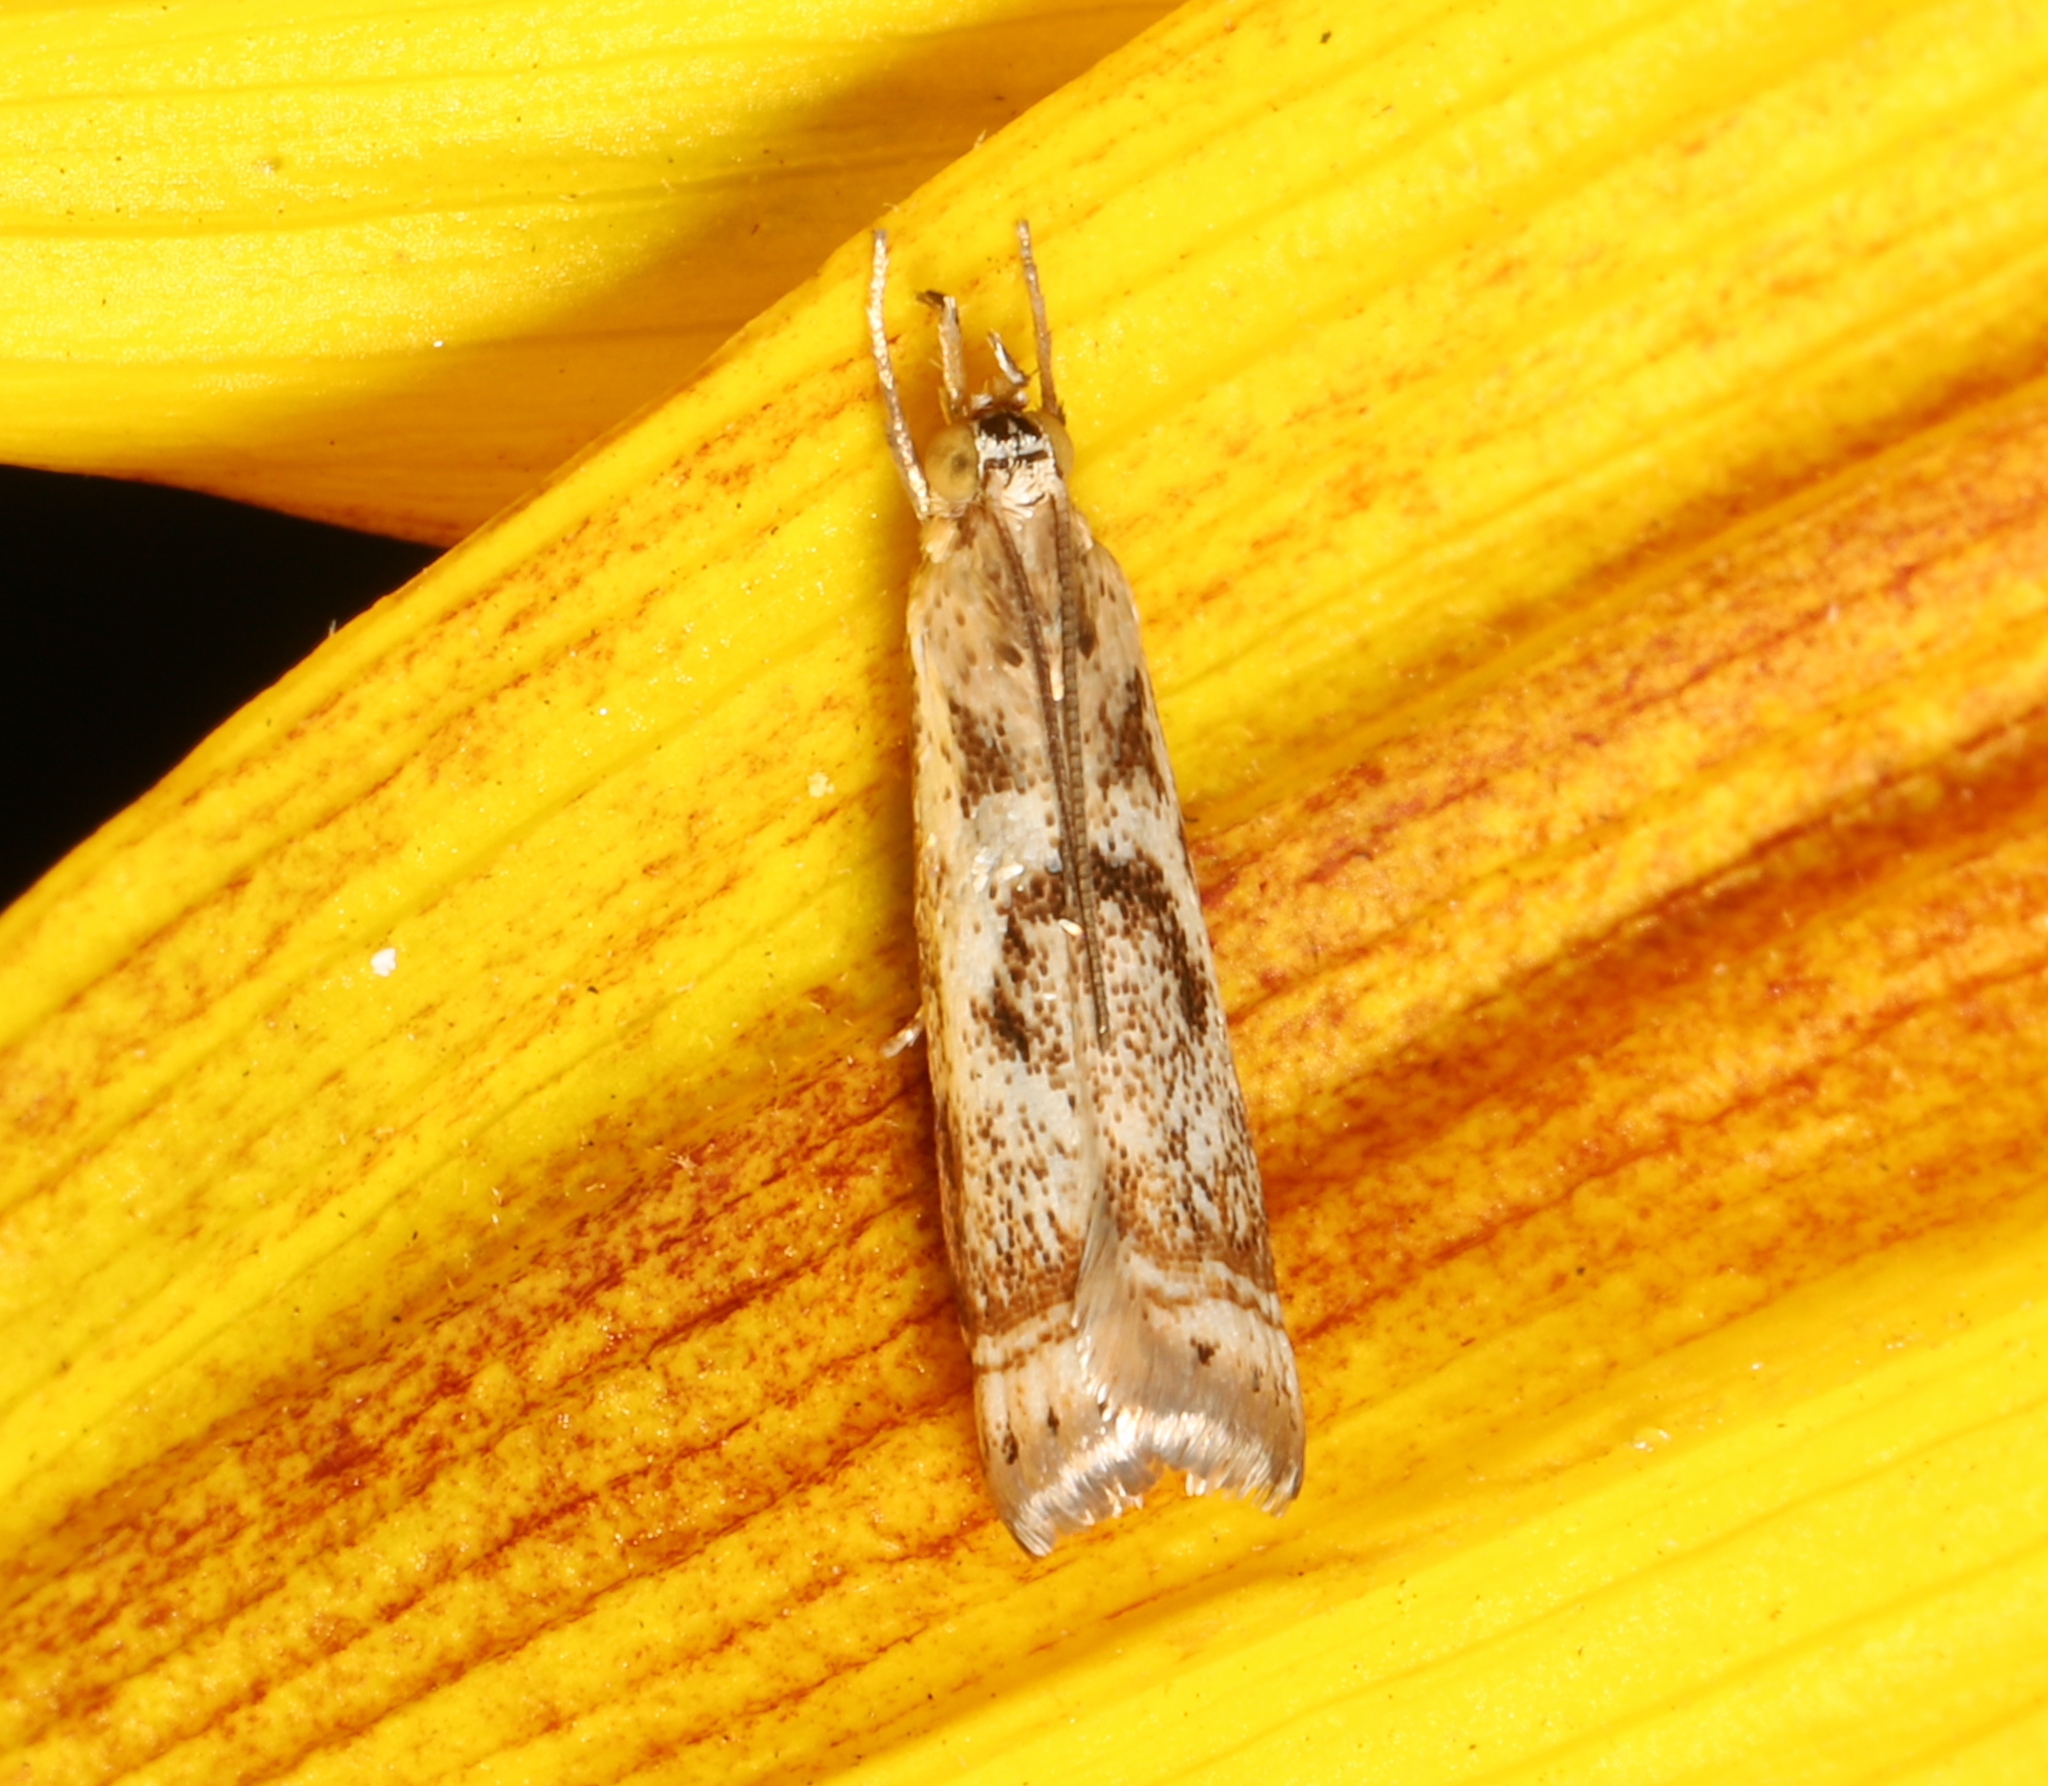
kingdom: Animalia
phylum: Arthropoda
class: Insecta
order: Lepidoptera
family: Crambidae
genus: Microcrambus
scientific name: Microcrambus elegans
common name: Elegant grass-veneer
